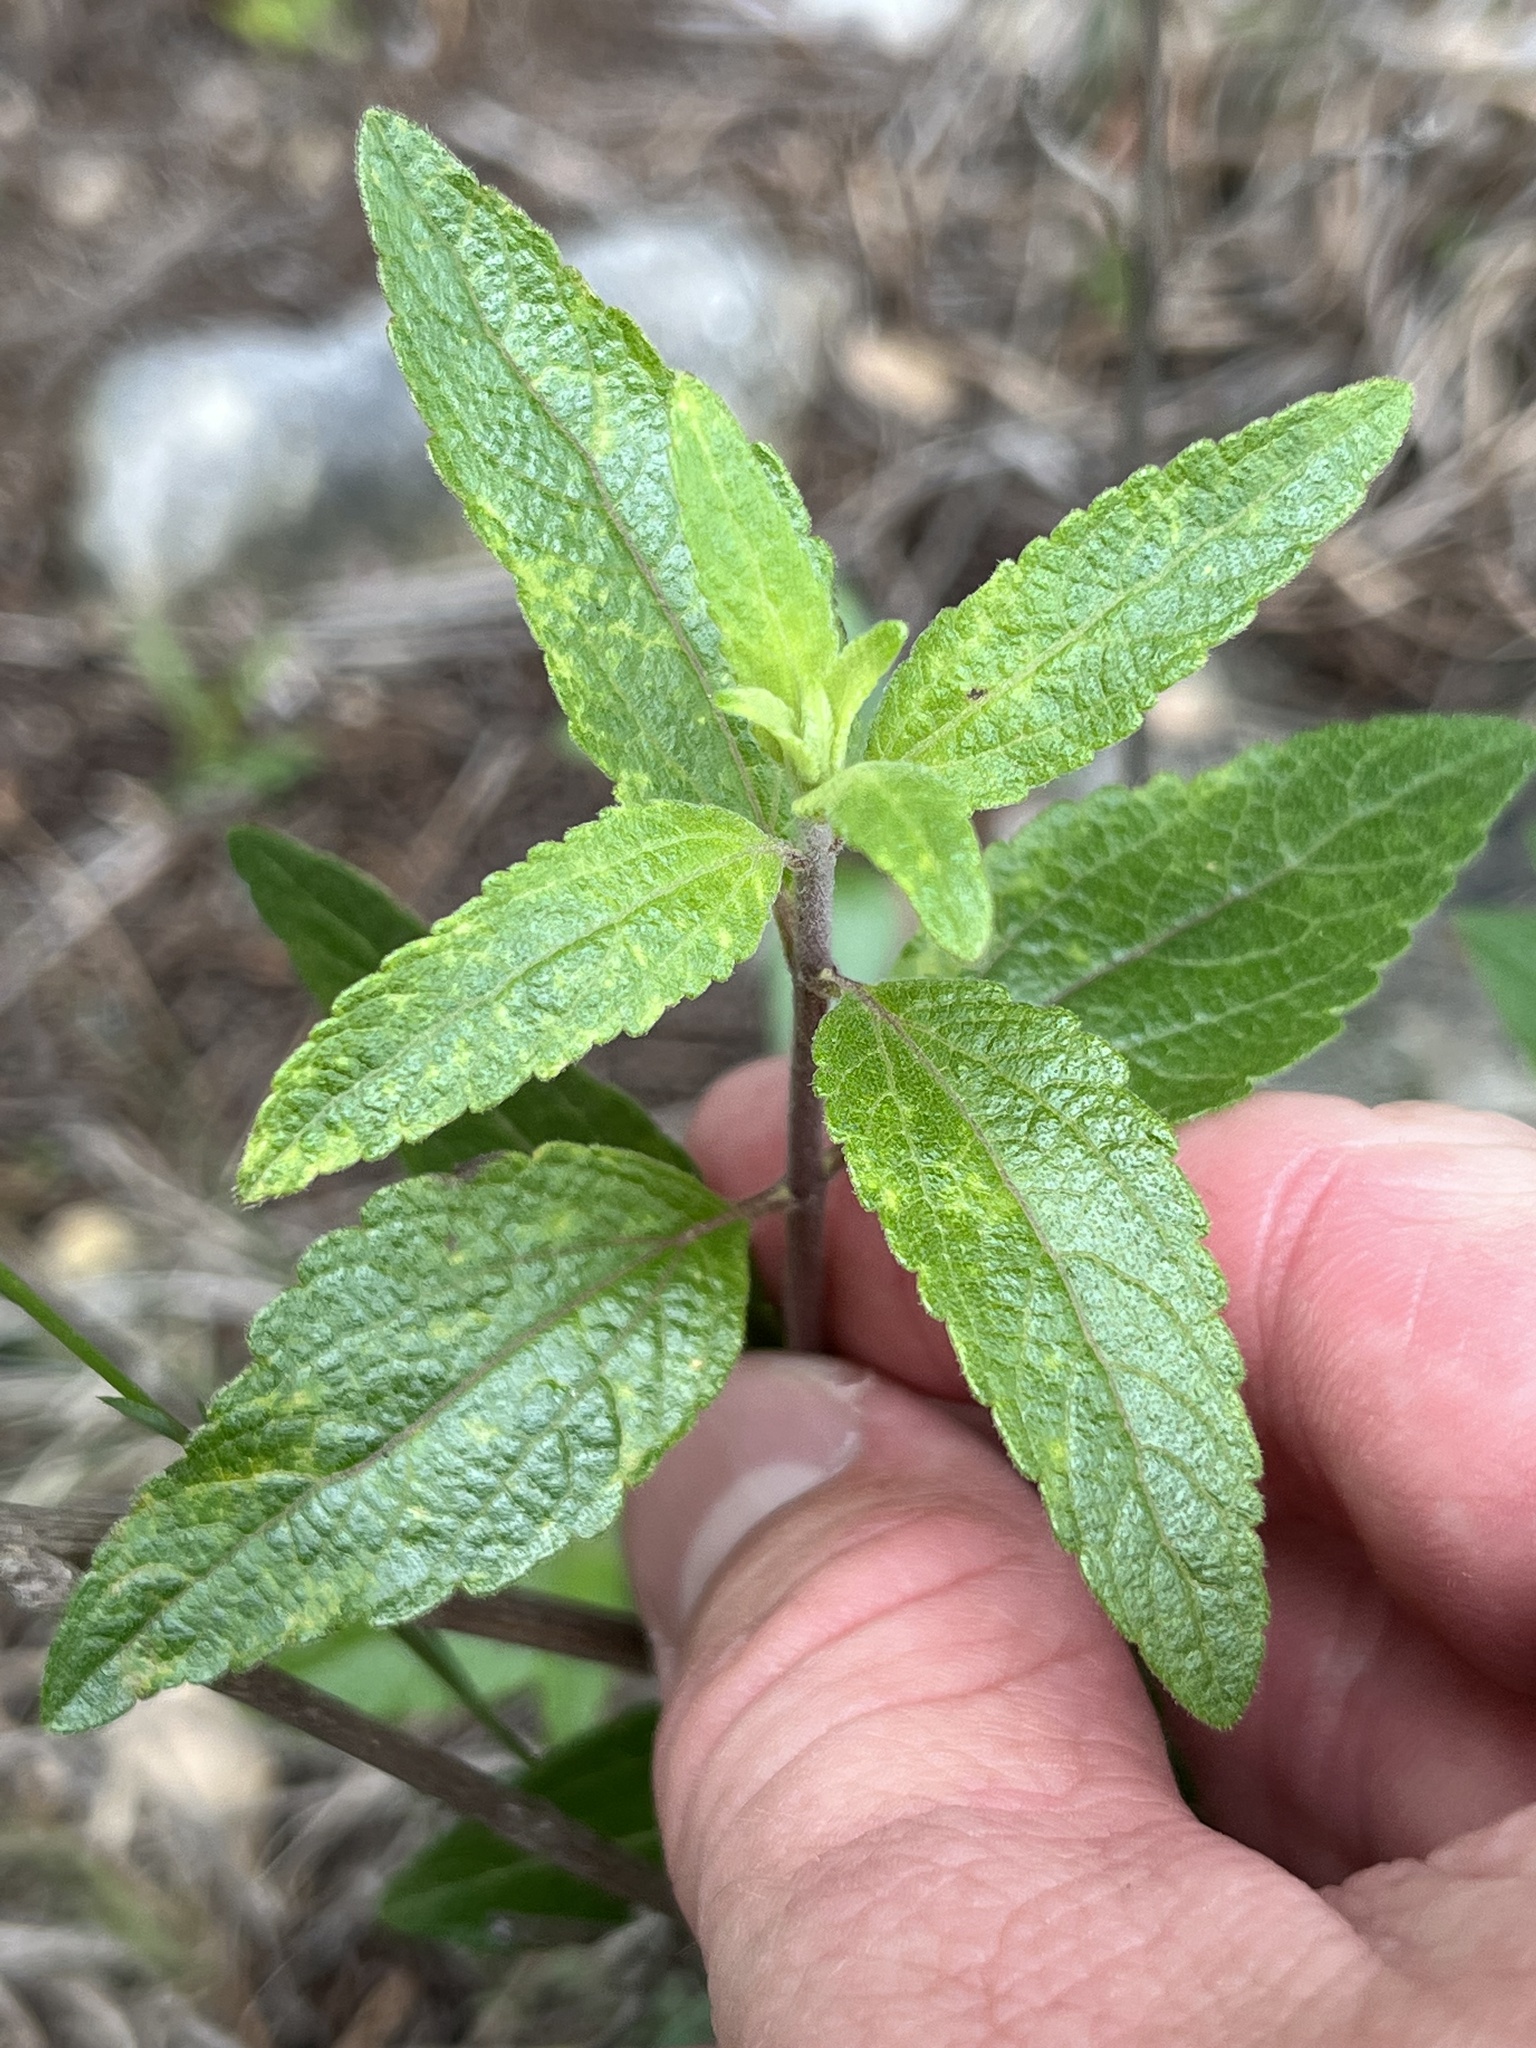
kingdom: Plantae
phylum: Tracheophyta
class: Magnoliopsida
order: Asterales
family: Asteraceae
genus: Brickellia
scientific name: Brickellia cylindracea
